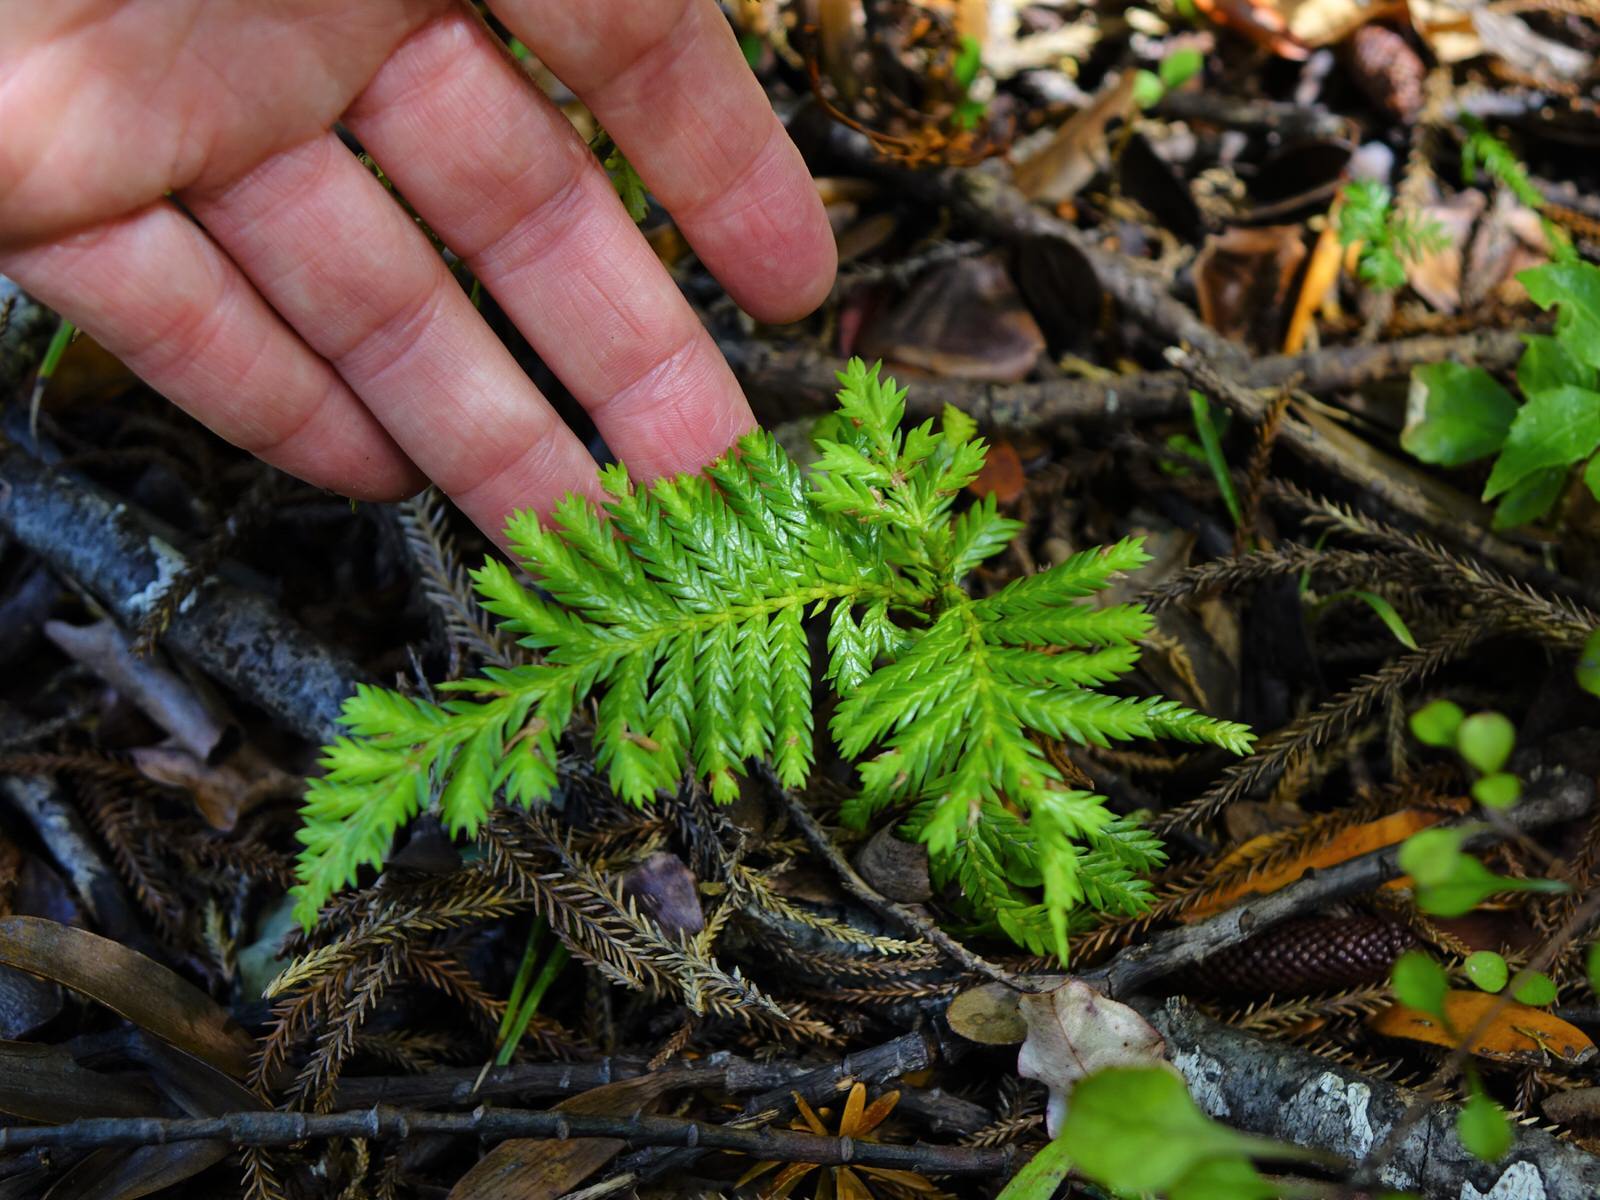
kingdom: Plantae
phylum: Tracheophyta
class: Pinopsida
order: Pinales
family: Cupressaceae
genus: Libocedrus
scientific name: Libocedrus plumosa
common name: New zealand cedar
